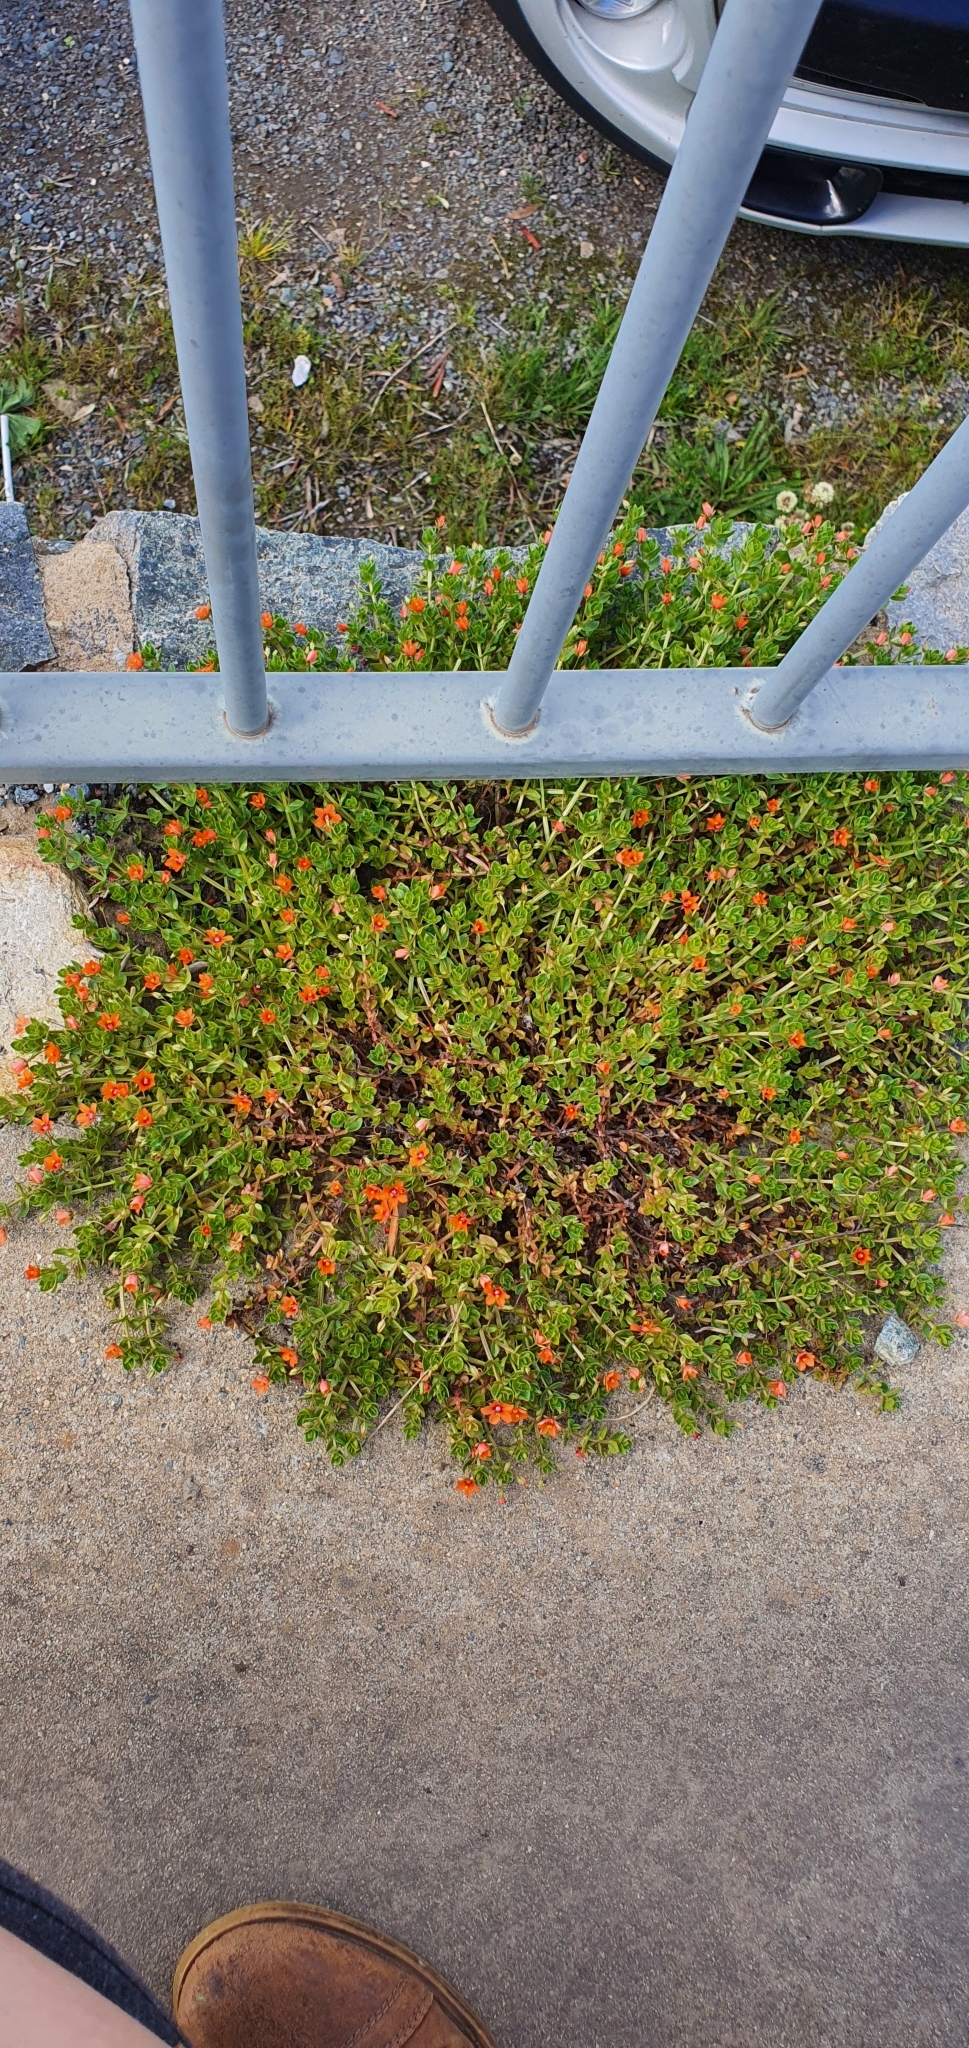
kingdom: Plantae
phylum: Tracheophyta
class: Magnoliopsida
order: Ericales
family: Primulaceae
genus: Lysimachia
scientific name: Lysimachia arvensis
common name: Scarlet pimpernel
